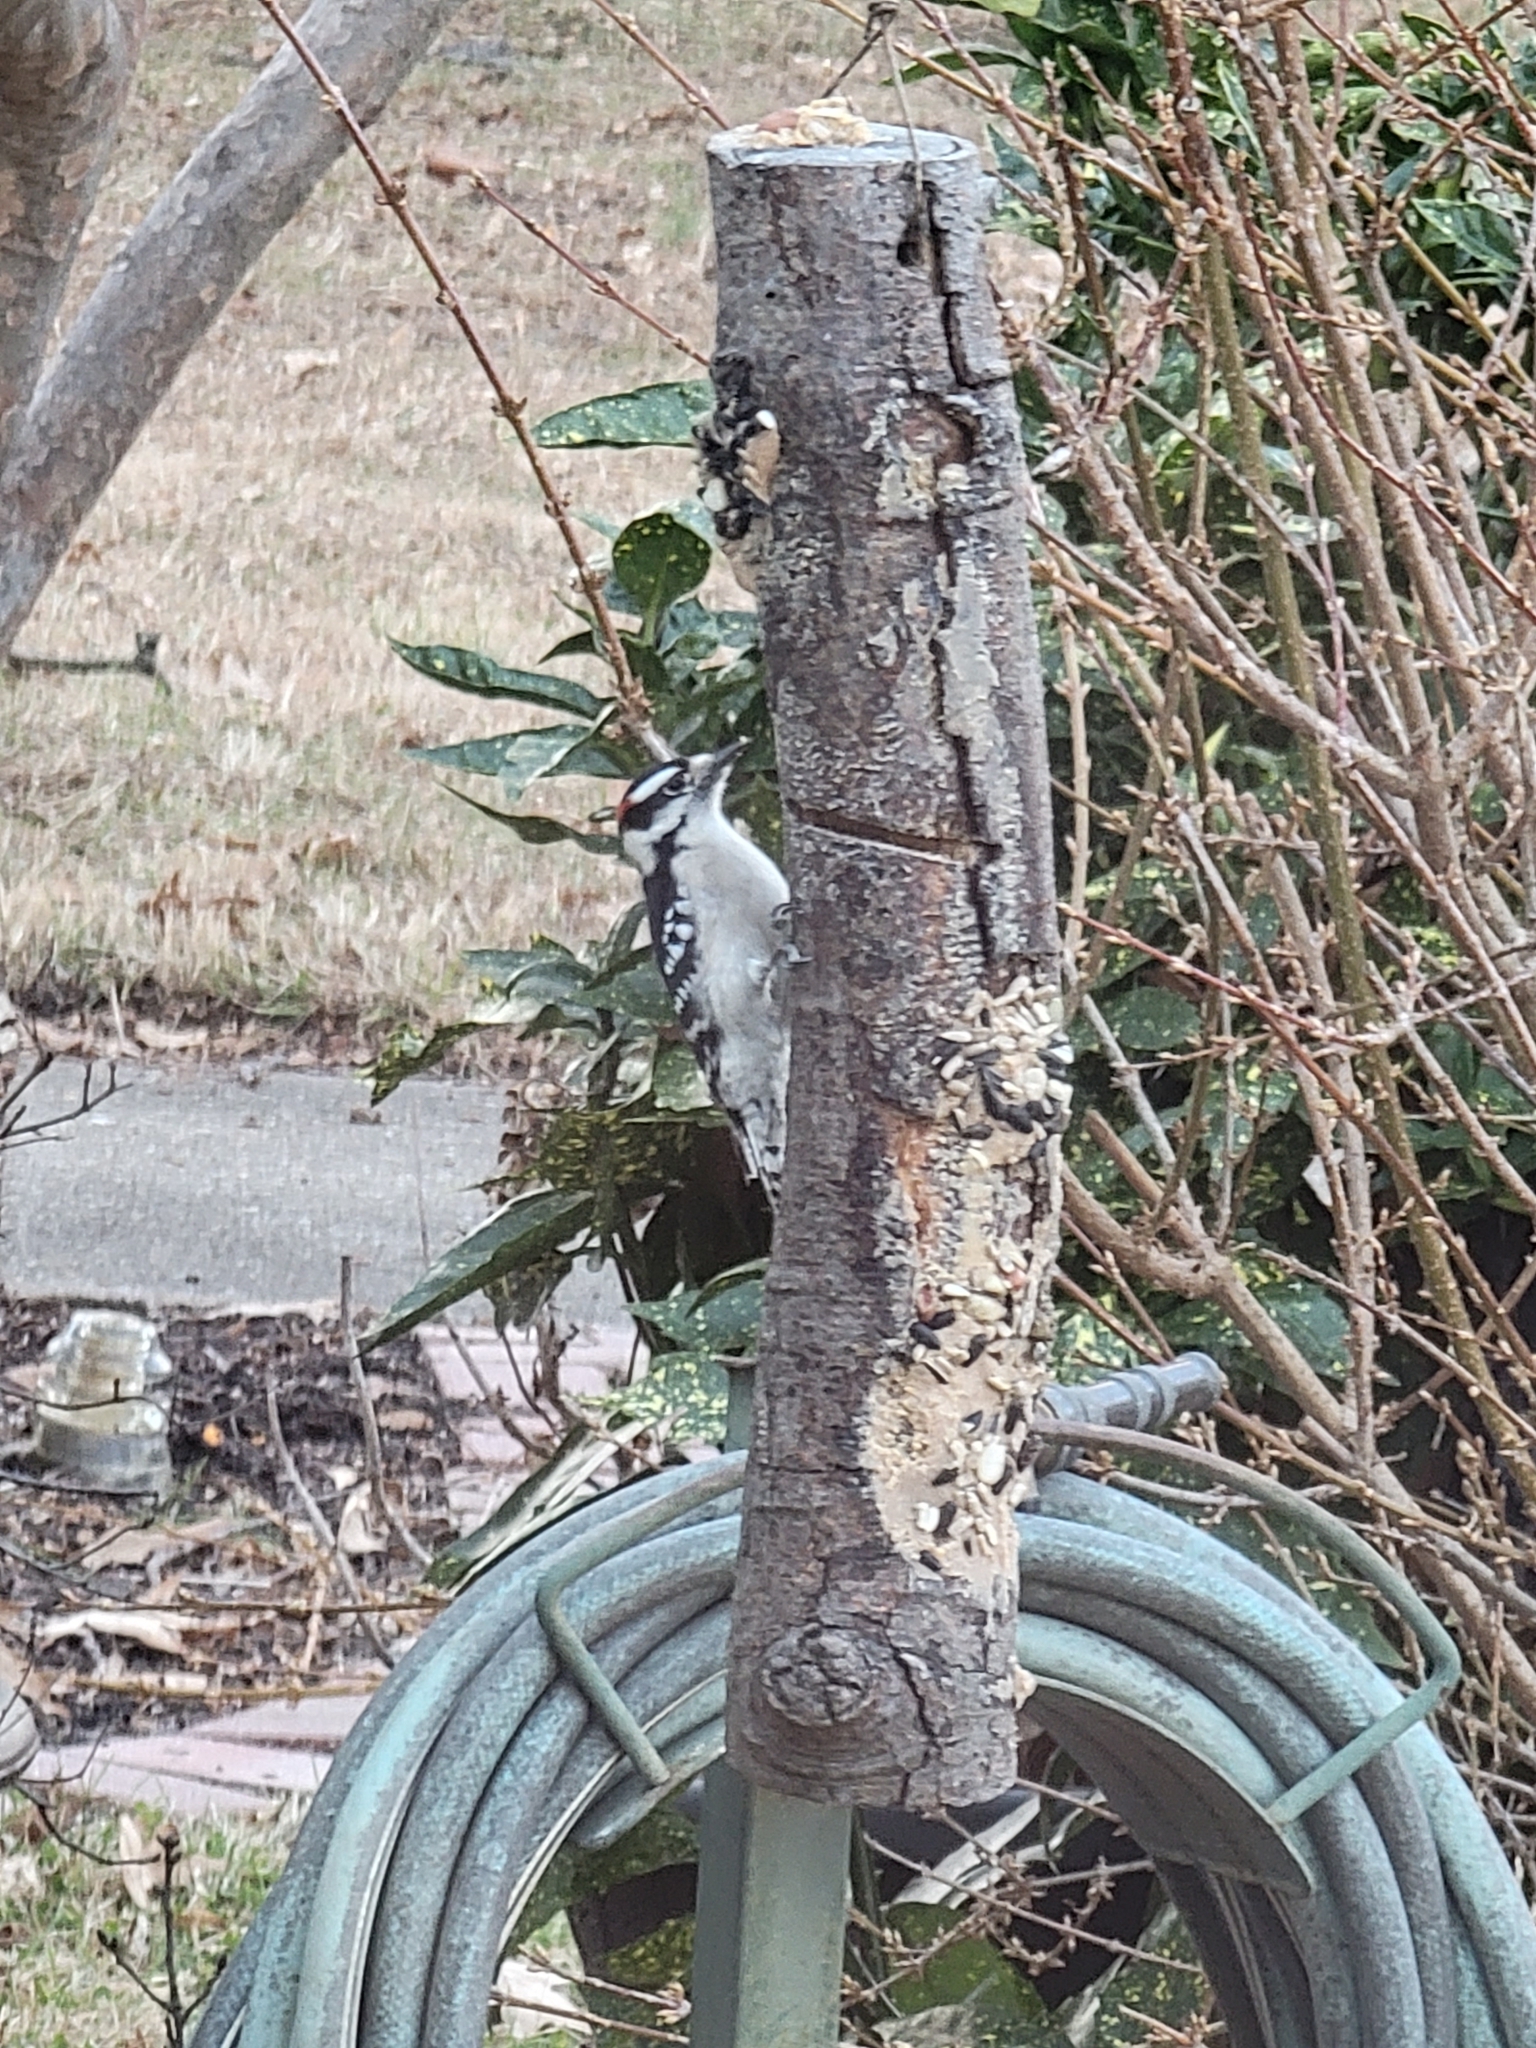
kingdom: Animalia
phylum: Chordata
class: Aves
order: Piciformes
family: Picidae
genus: Dryobates
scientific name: Dryobates pubescens
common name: Downy woodpecker
